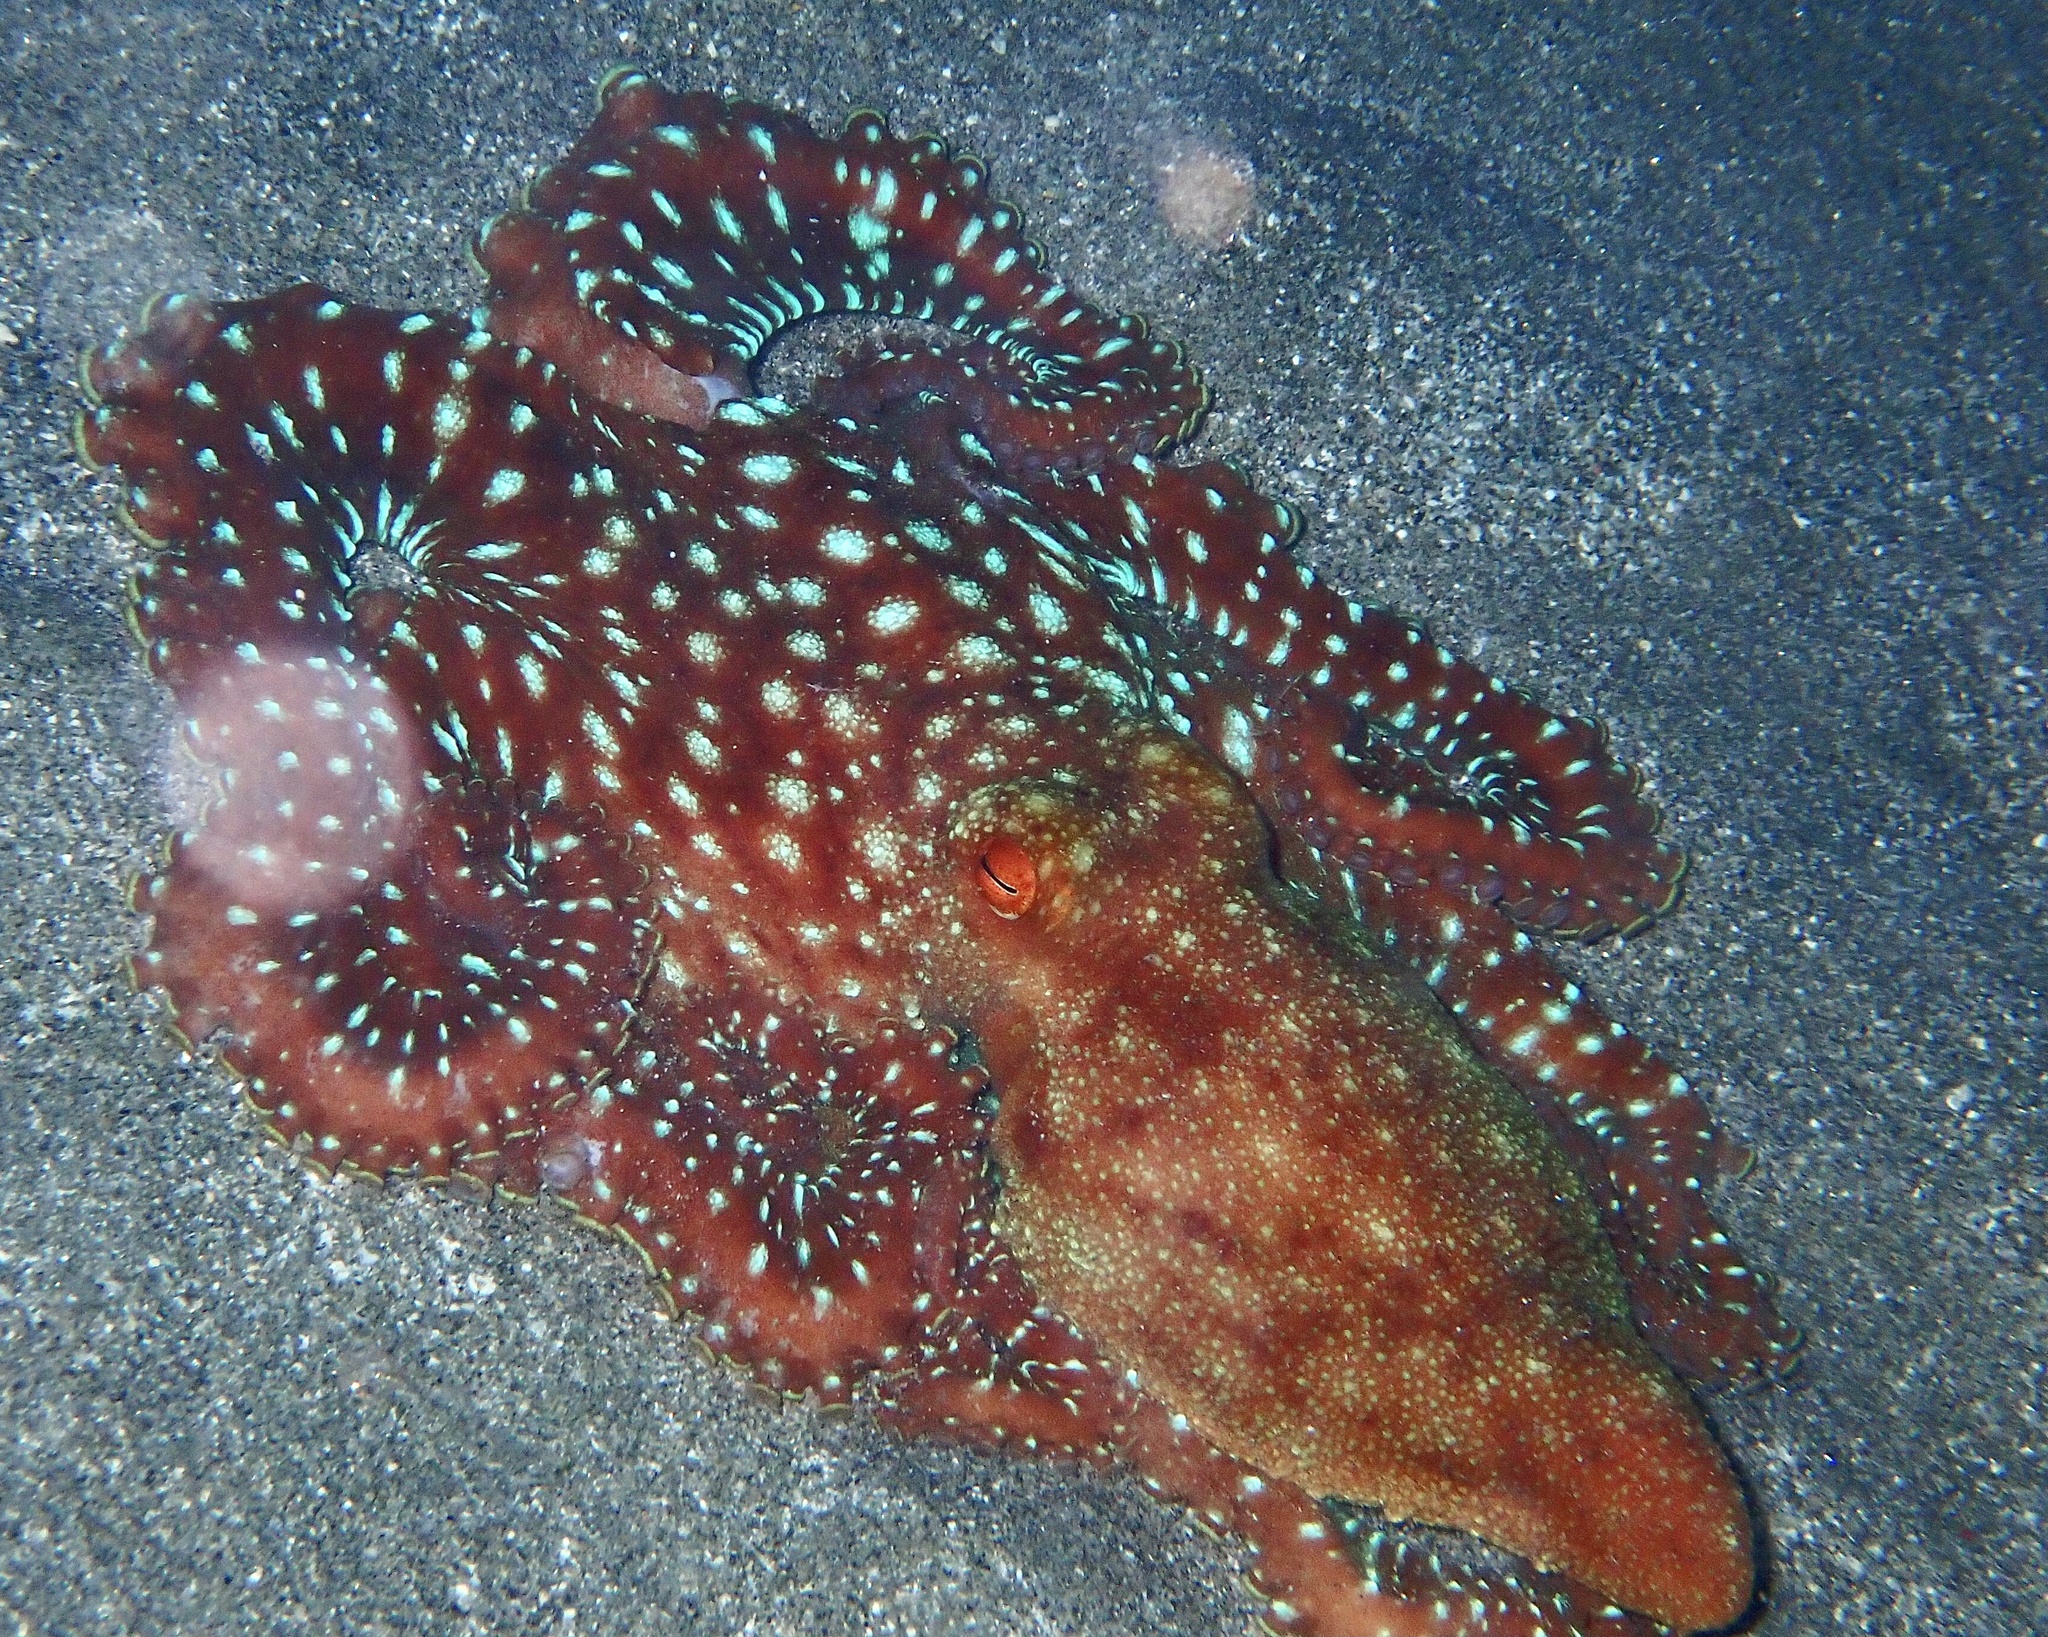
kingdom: Animalia
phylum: Mollusca
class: Cephalopoda
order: Octopoda
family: Octopodidae
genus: Callistoctopus
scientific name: Callistoctopus ornatus
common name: Ornate octopus
